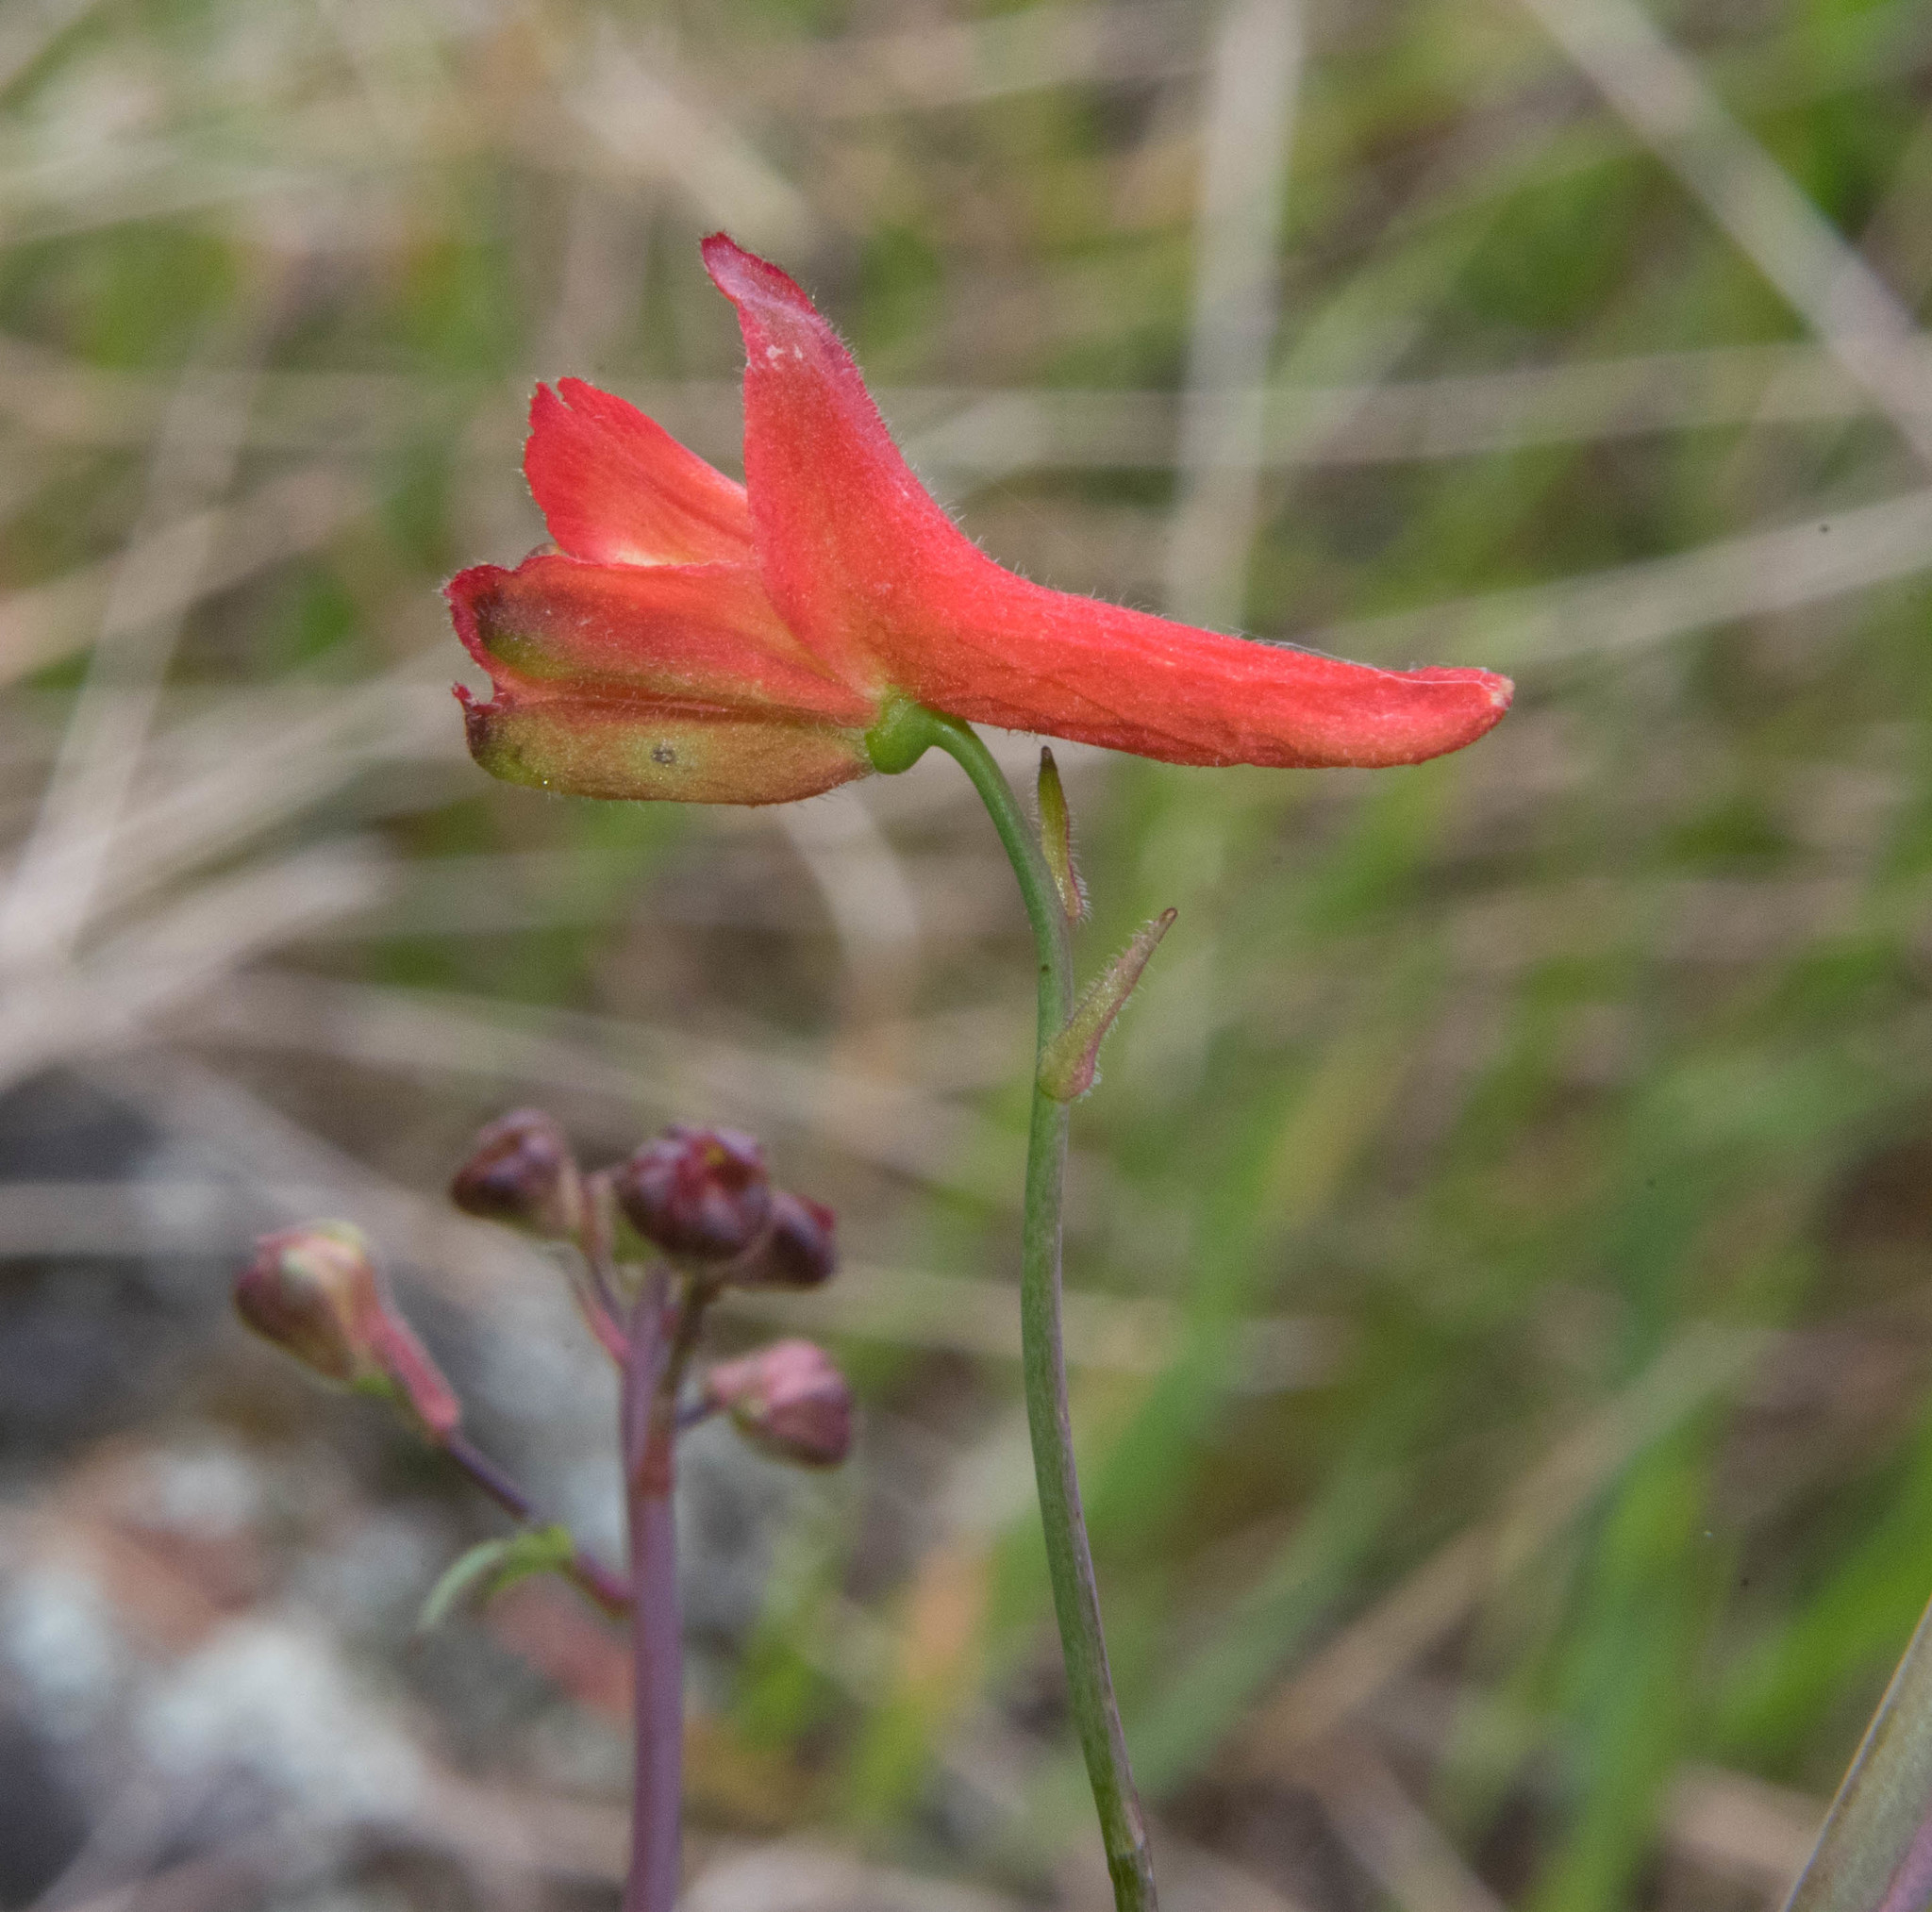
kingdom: Plantae
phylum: Tracheophyta
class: Magnoliopsida
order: Ranunculales
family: Ranunculaceae
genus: Delphinium
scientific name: Delphinium nudicaule
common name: Red larkspur
